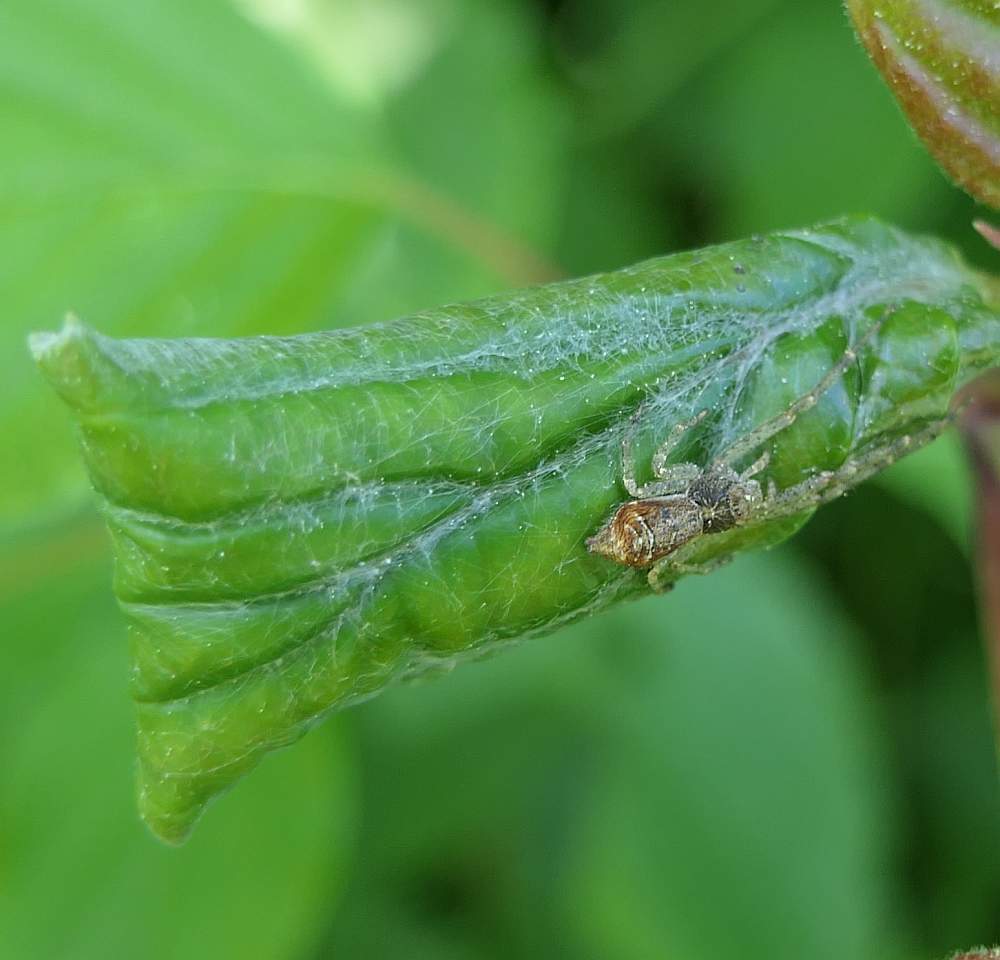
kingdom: Animalia
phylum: Arthropoda
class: Arachnida
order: Araneae
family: Thomisidae
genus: Tmarus
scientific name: Tmarus angulatus
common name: Tuberculated crab spider
